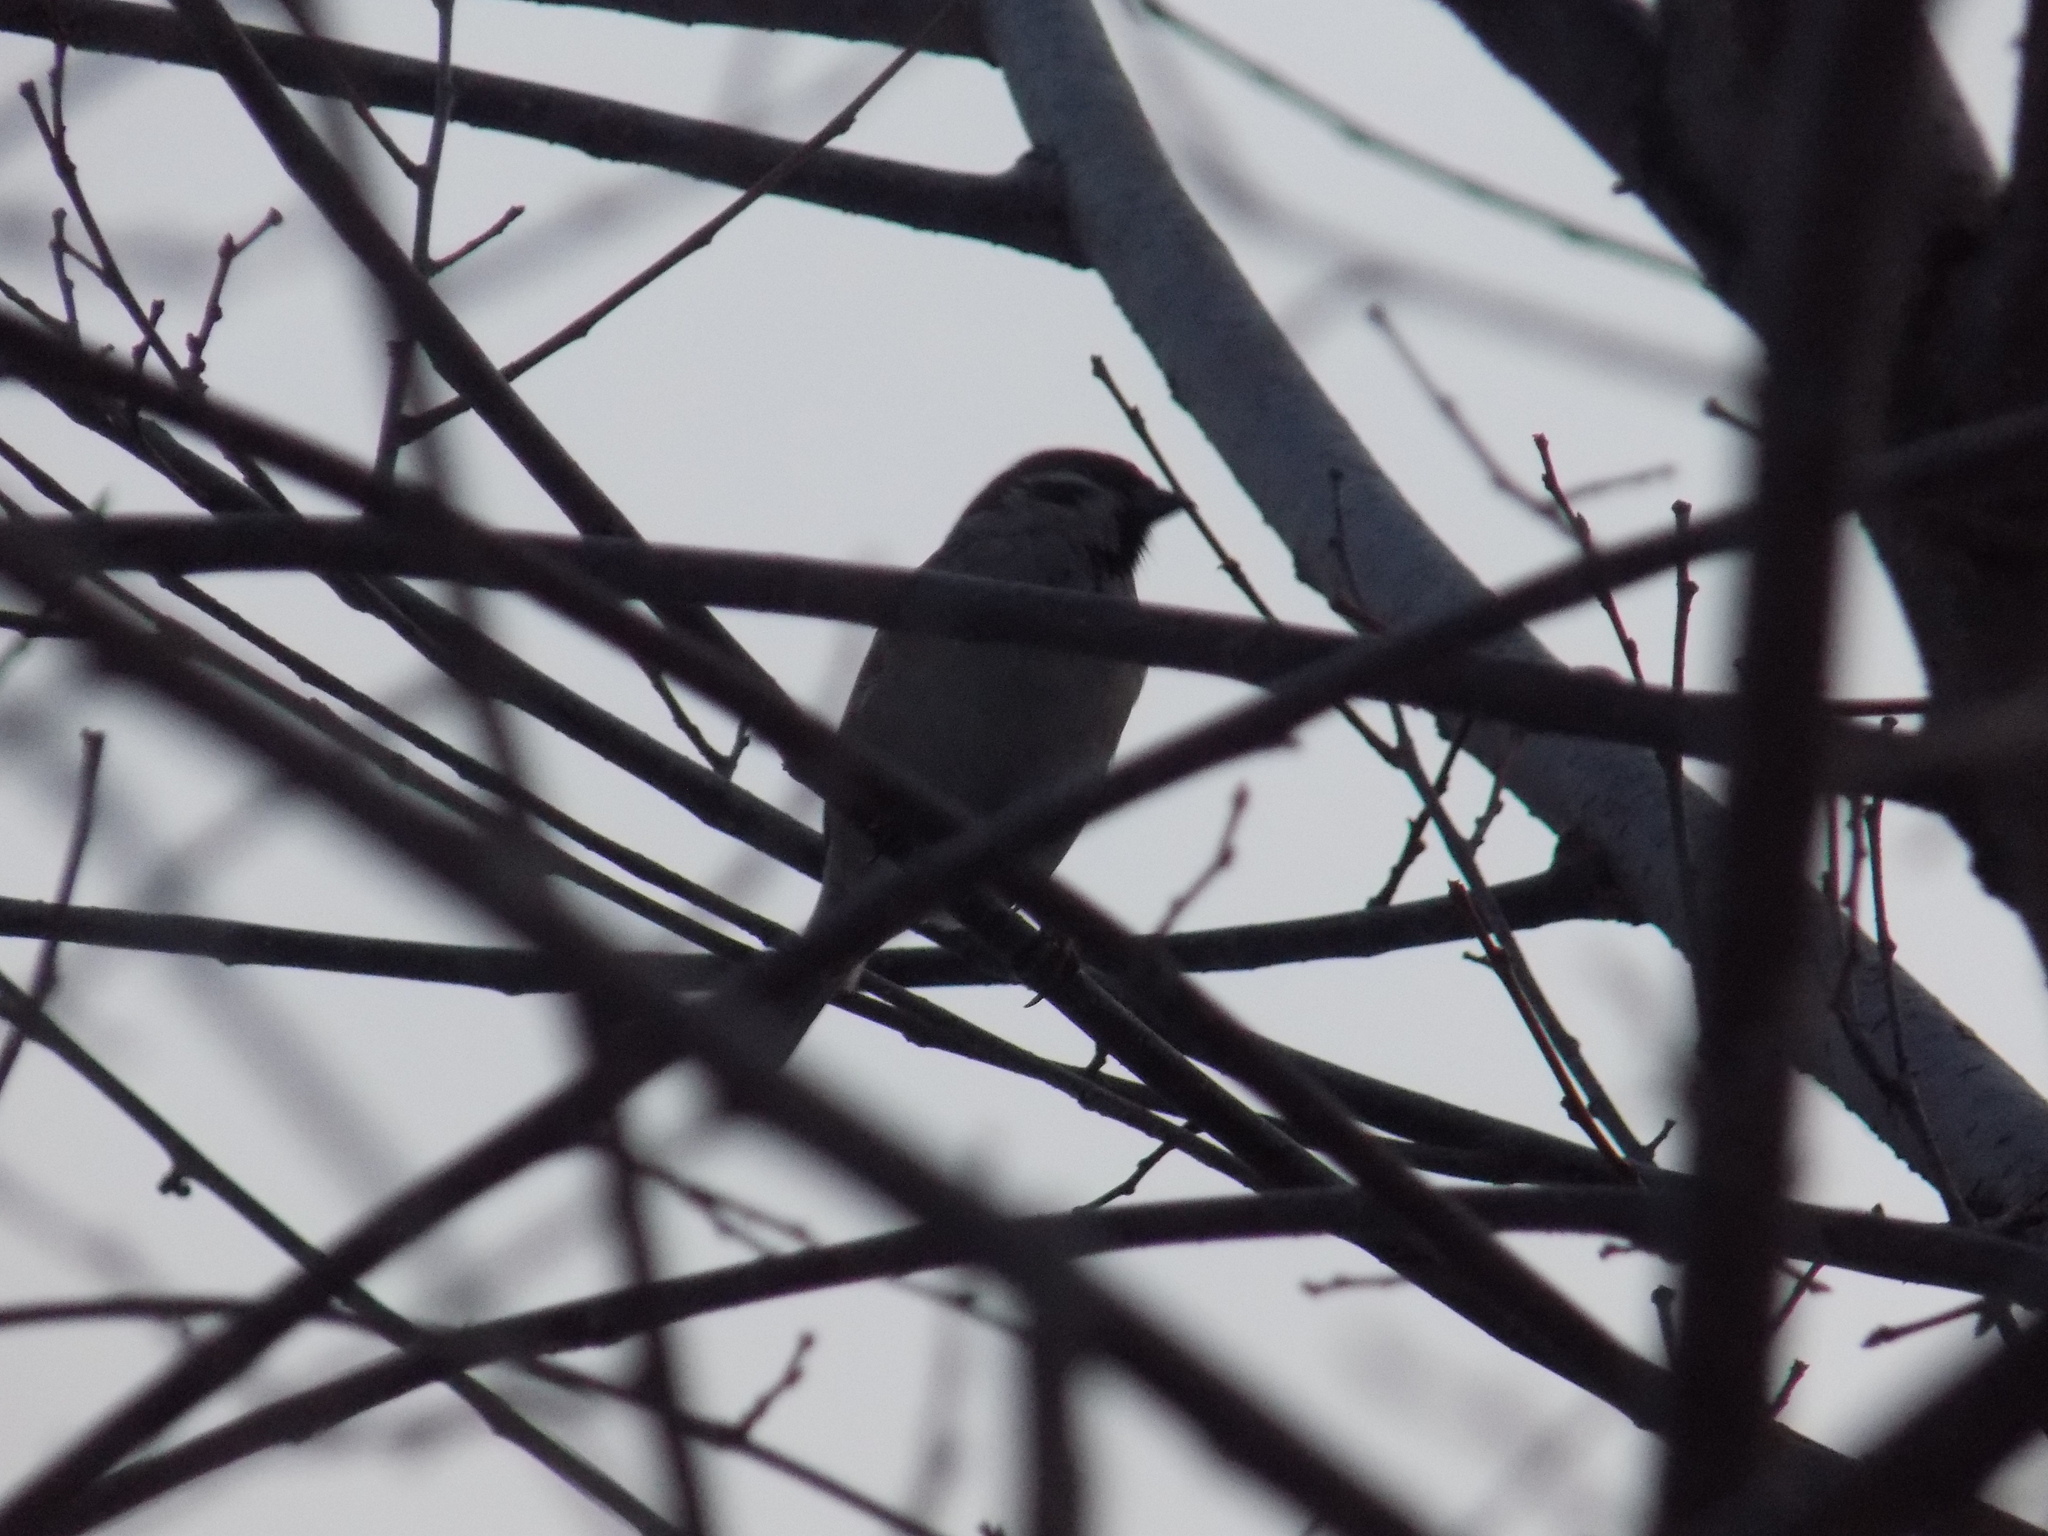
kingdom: Animalia
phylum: Chordata
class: Aves
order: Passeriformes
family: Passeridae
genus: Passer
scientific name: Passer montanus
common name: Eurasian tree sparrow
